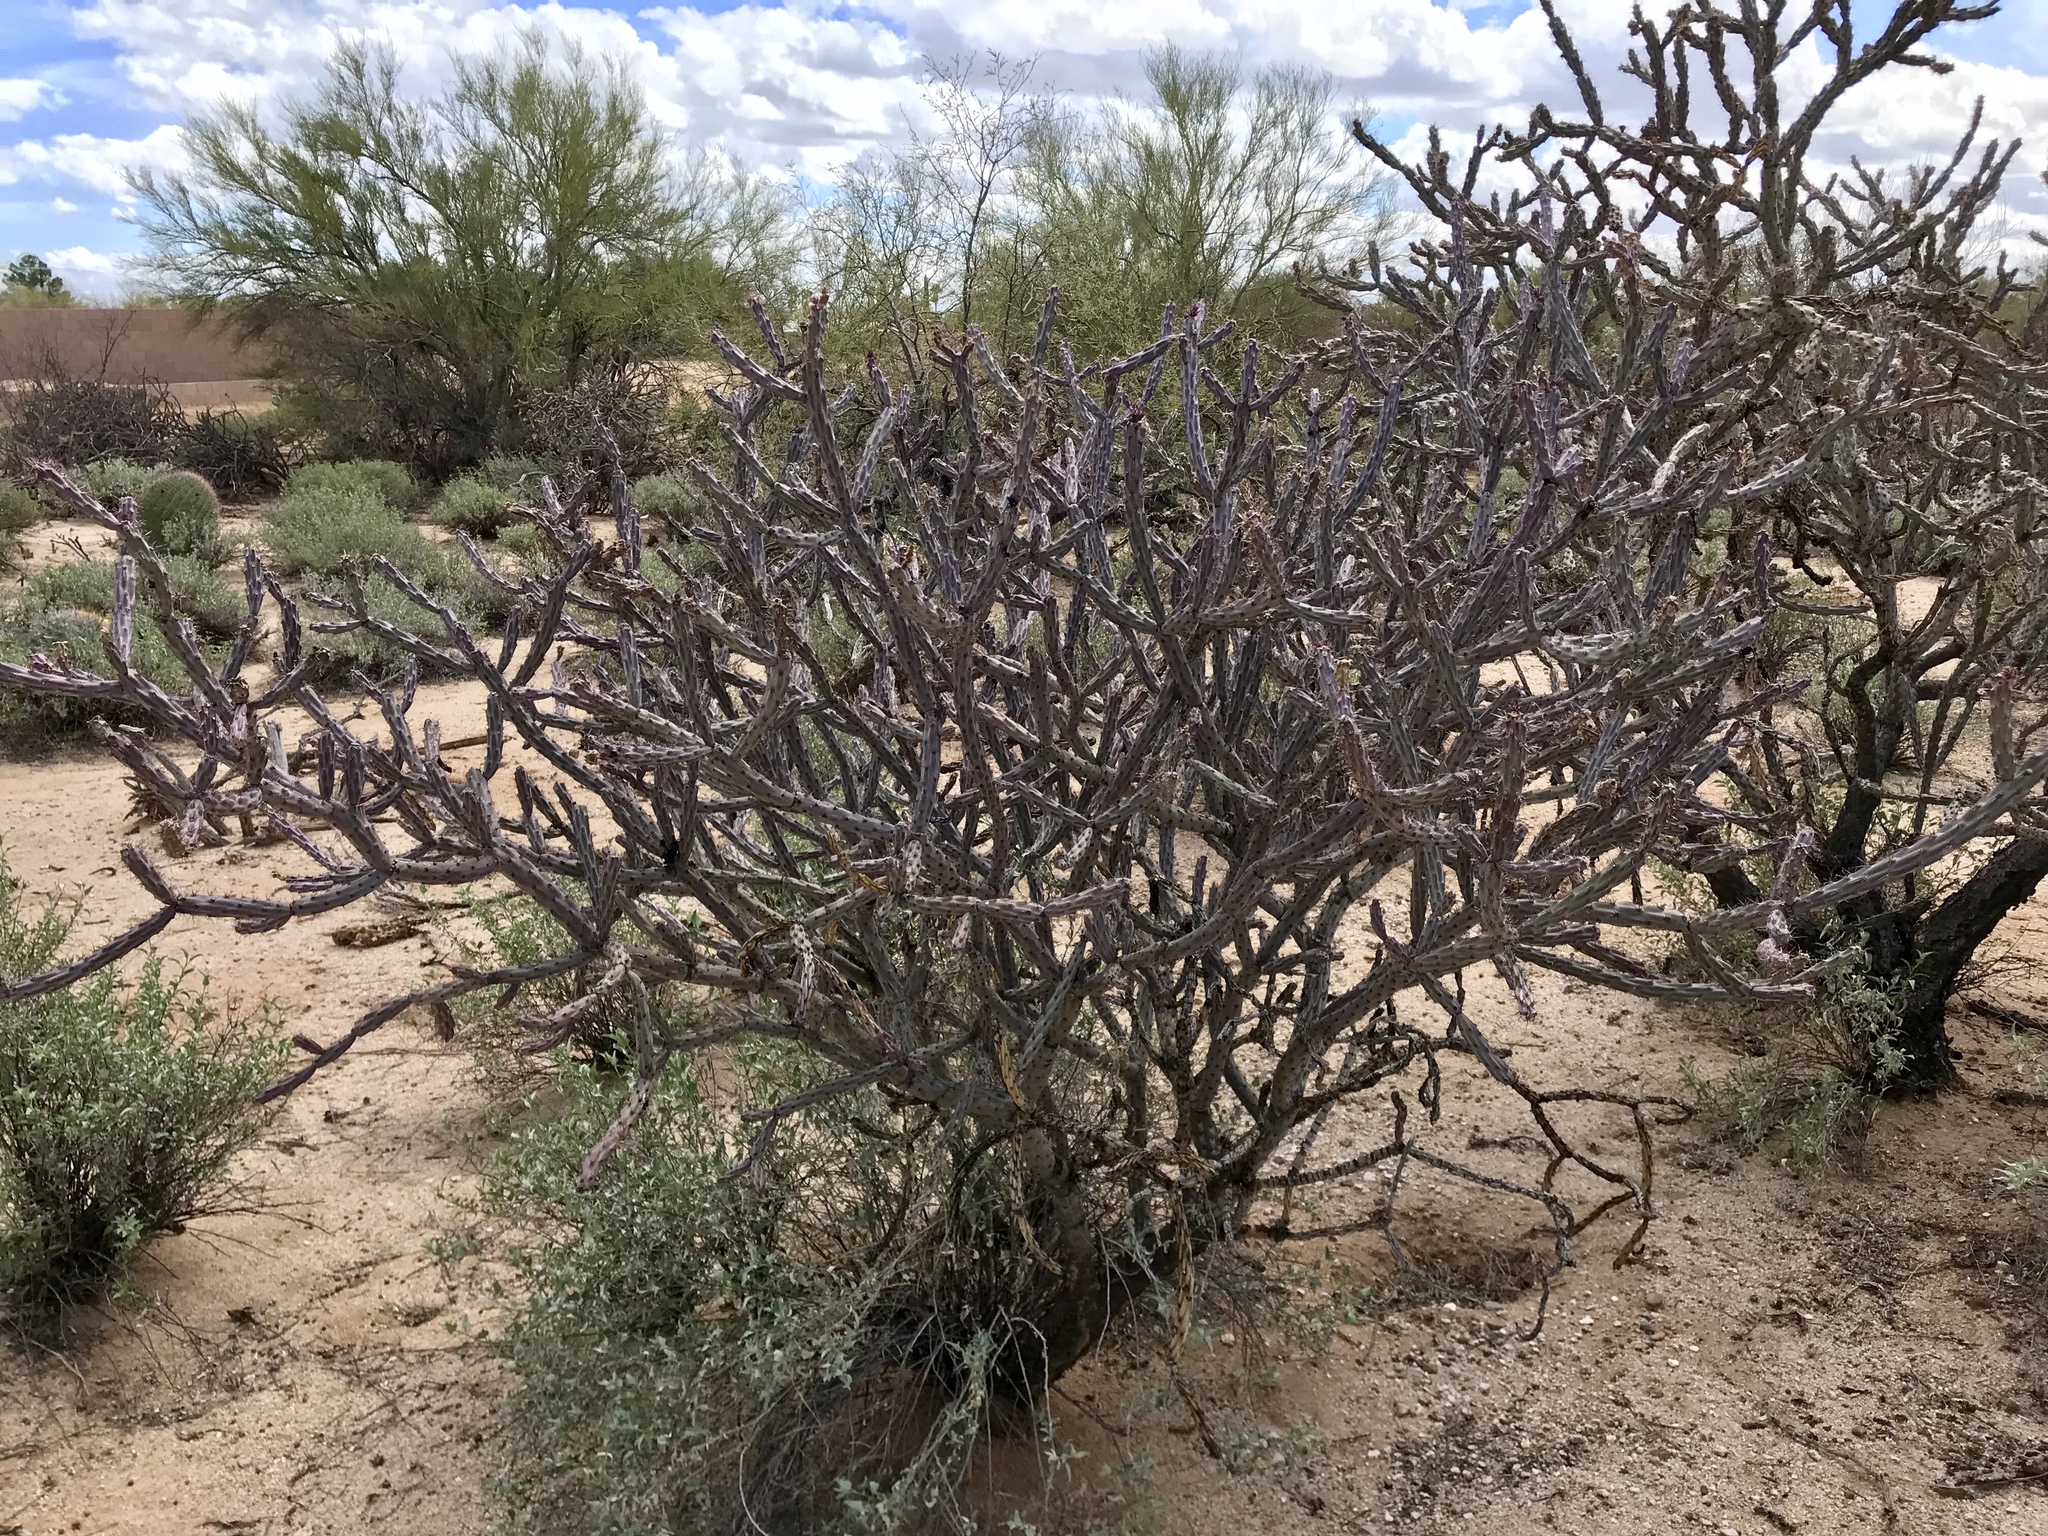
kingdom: Plantae
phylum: Tracheophyta
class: Magnoliopsida
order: Caryophyllales
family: Cactaceae
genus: Cylindropuntia
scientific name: Cylindropuntia acanthocarpa
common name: Buckhorn cholla
